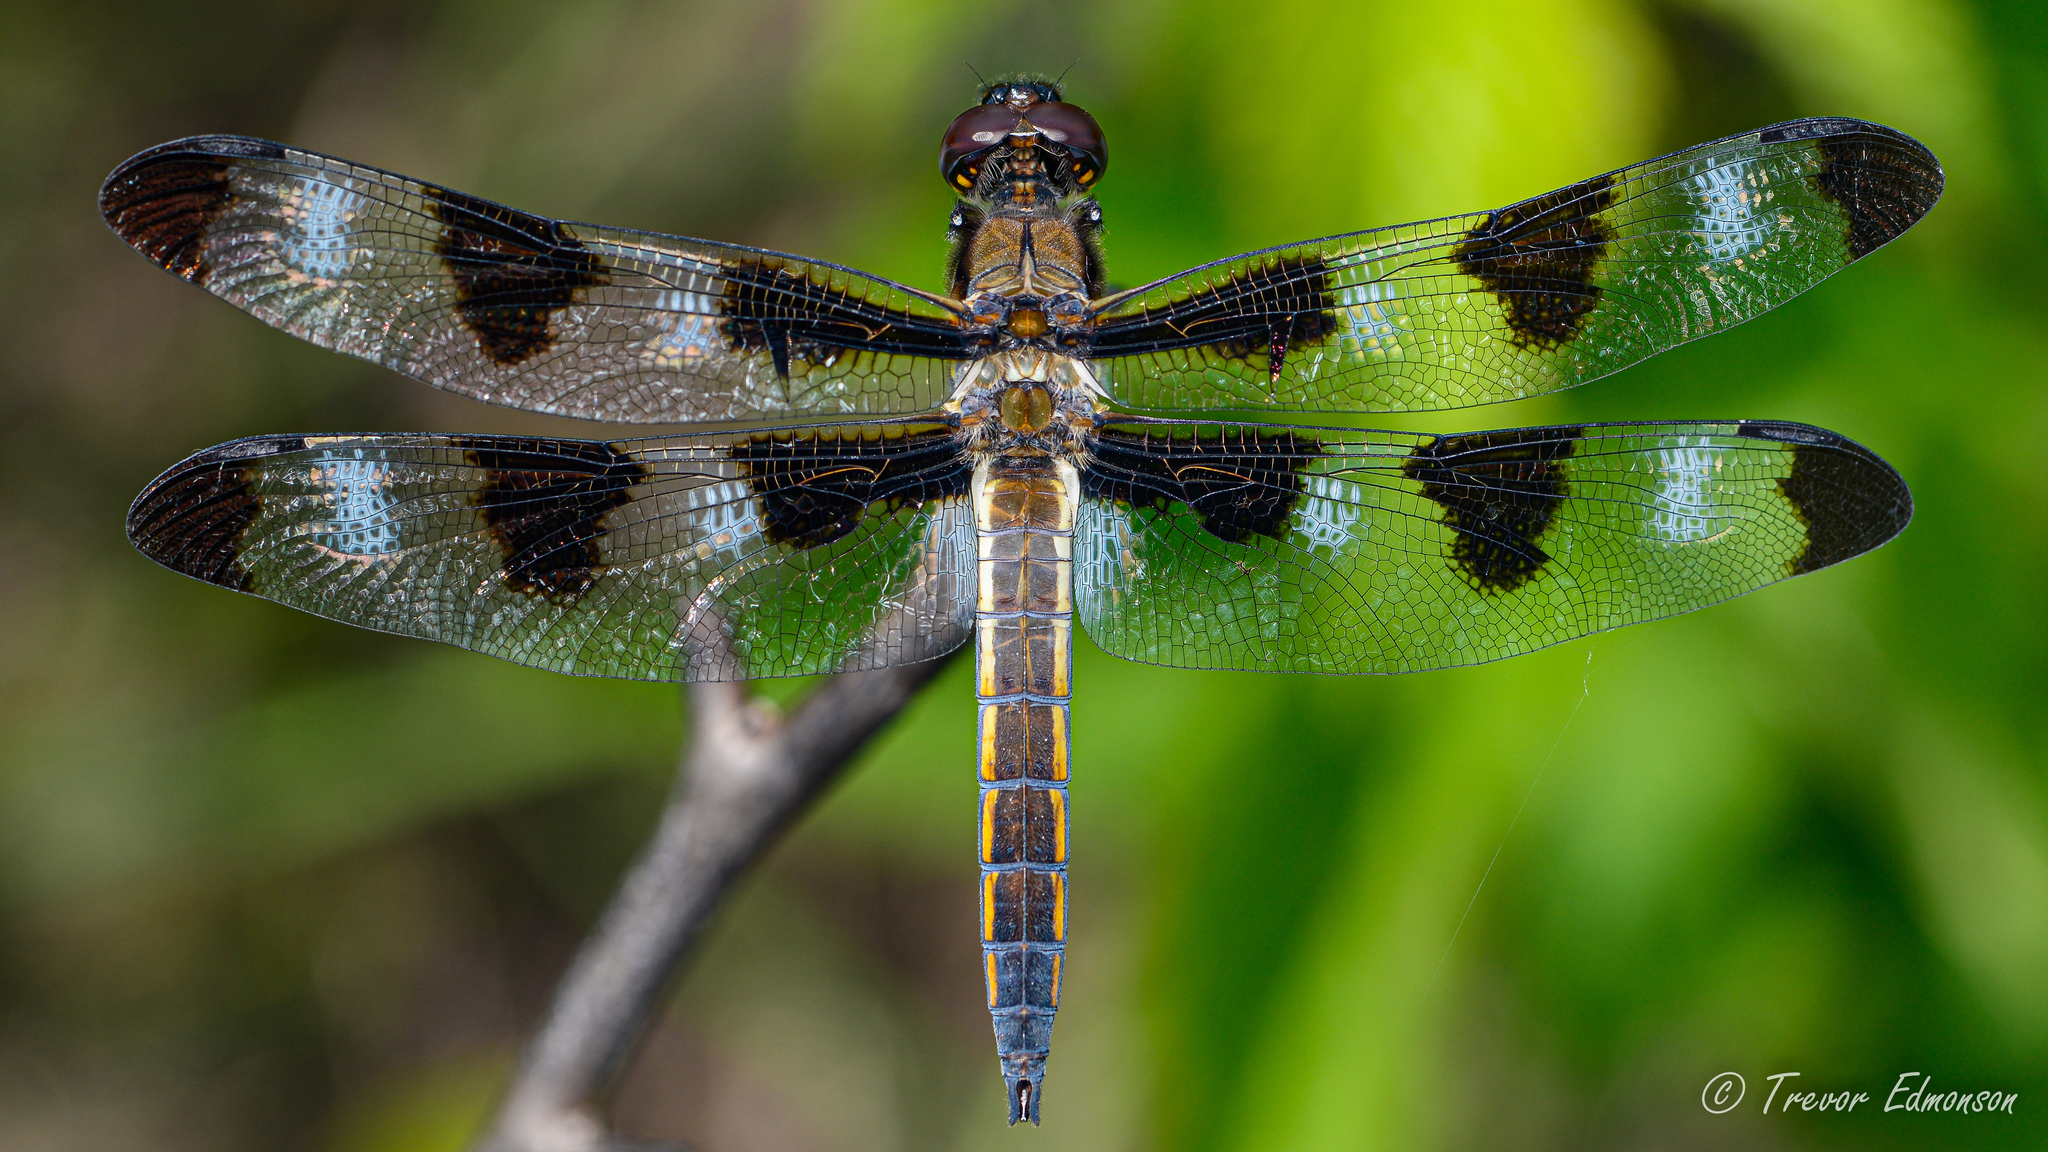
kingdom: Animalia
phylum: Arthropoda
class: Insecta
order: Odonata
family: Libellulidae
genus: Libellula
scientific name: Libellula pulchella
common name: Twelve-spotted skimmer
